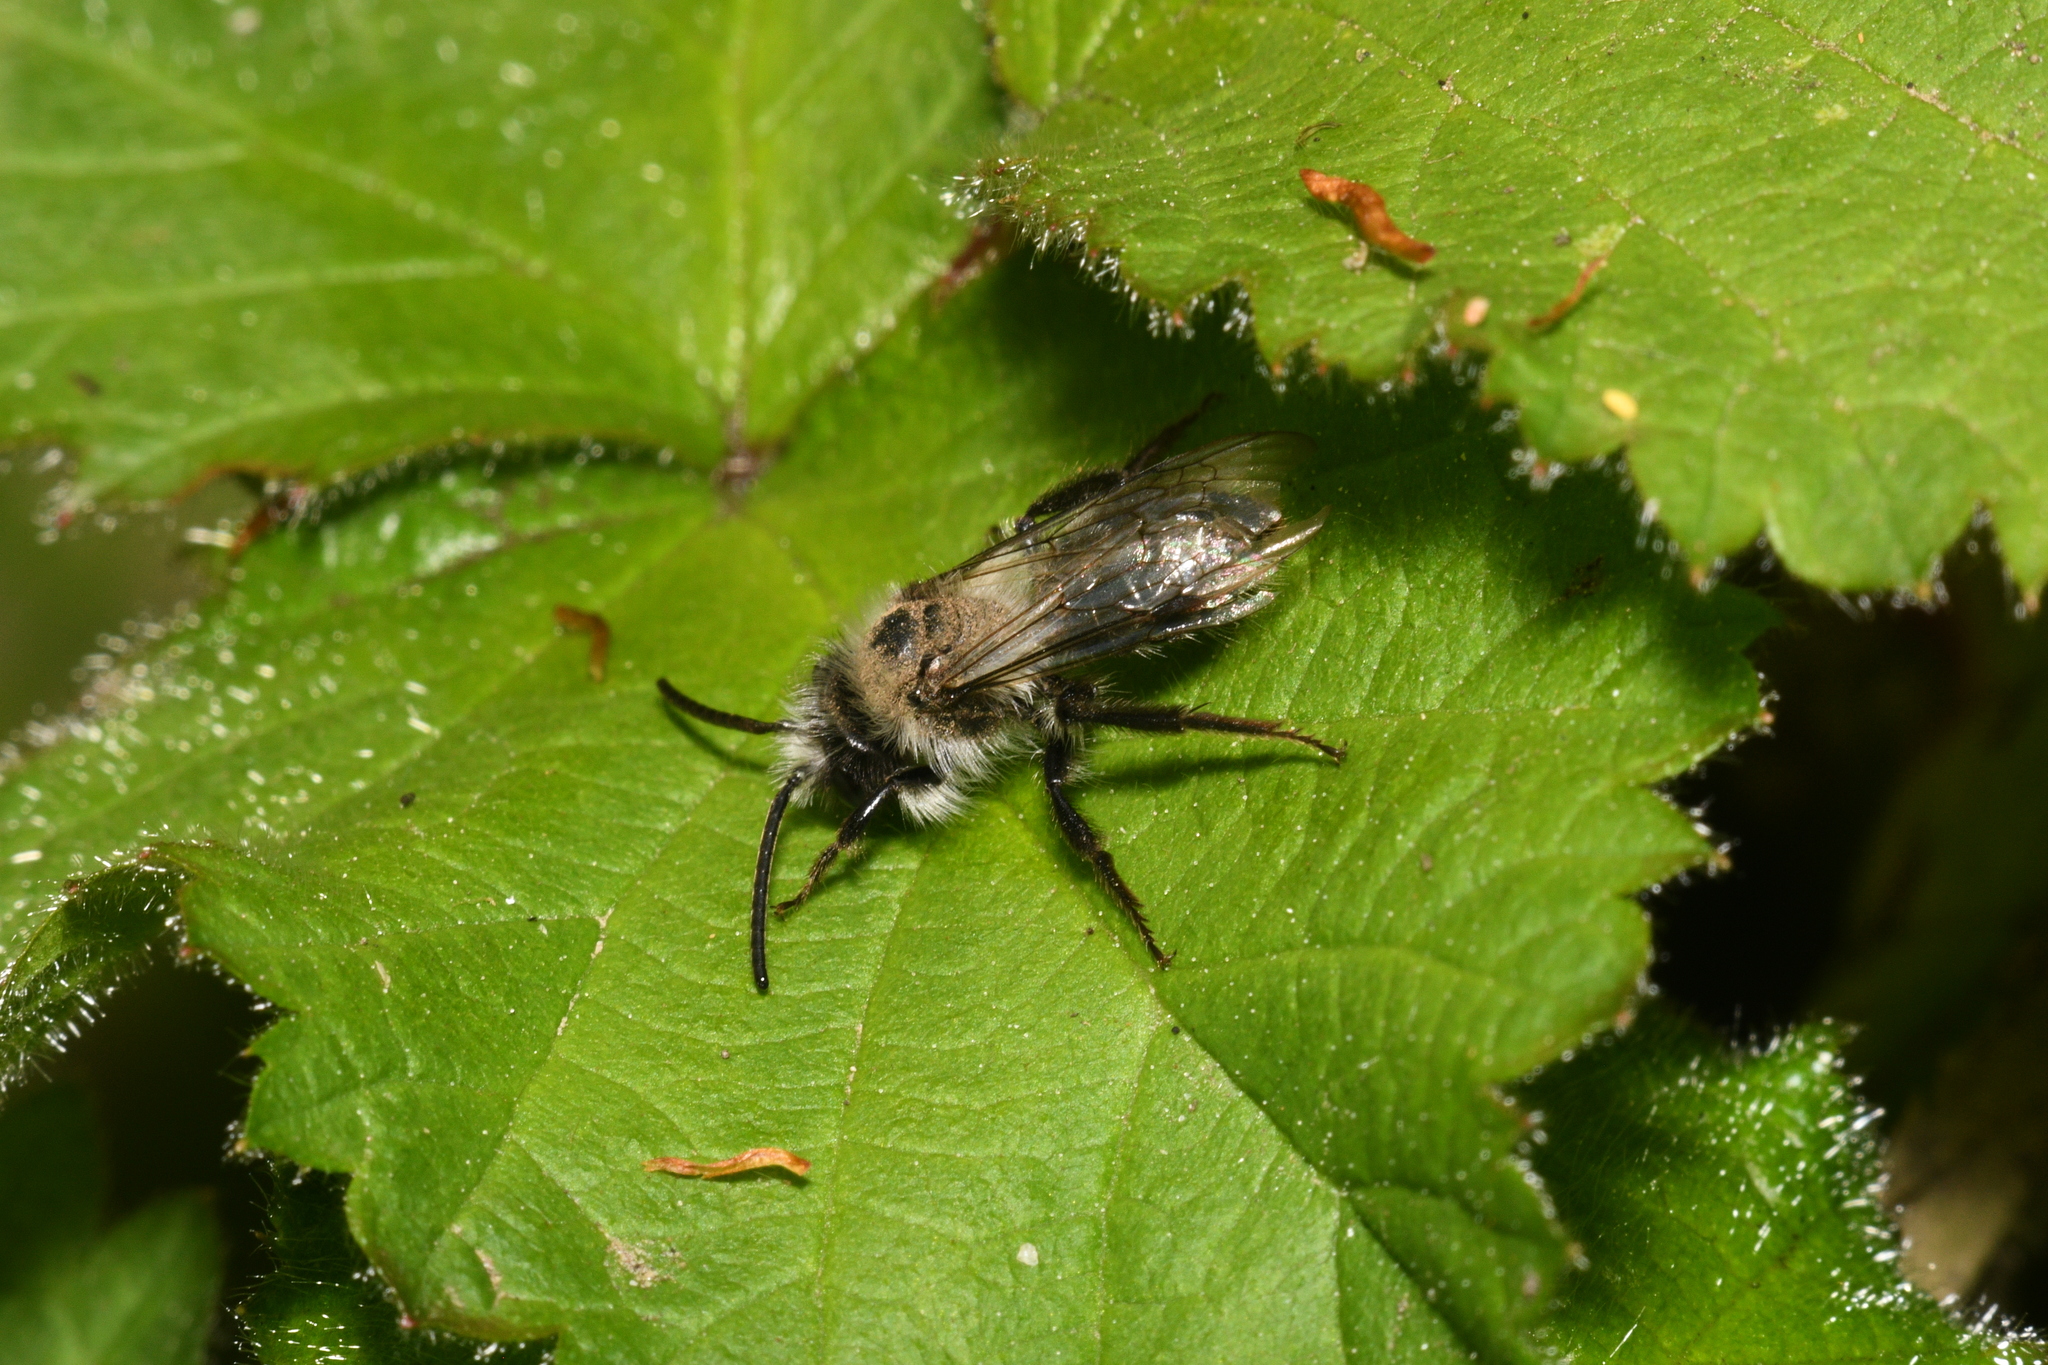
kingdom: Animalia
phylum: Arthropoda
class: Insecta
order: Hymenoptera
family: Andrenidae
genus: Andrena
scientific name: Andrena cineraria
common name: Ashy mining bee
